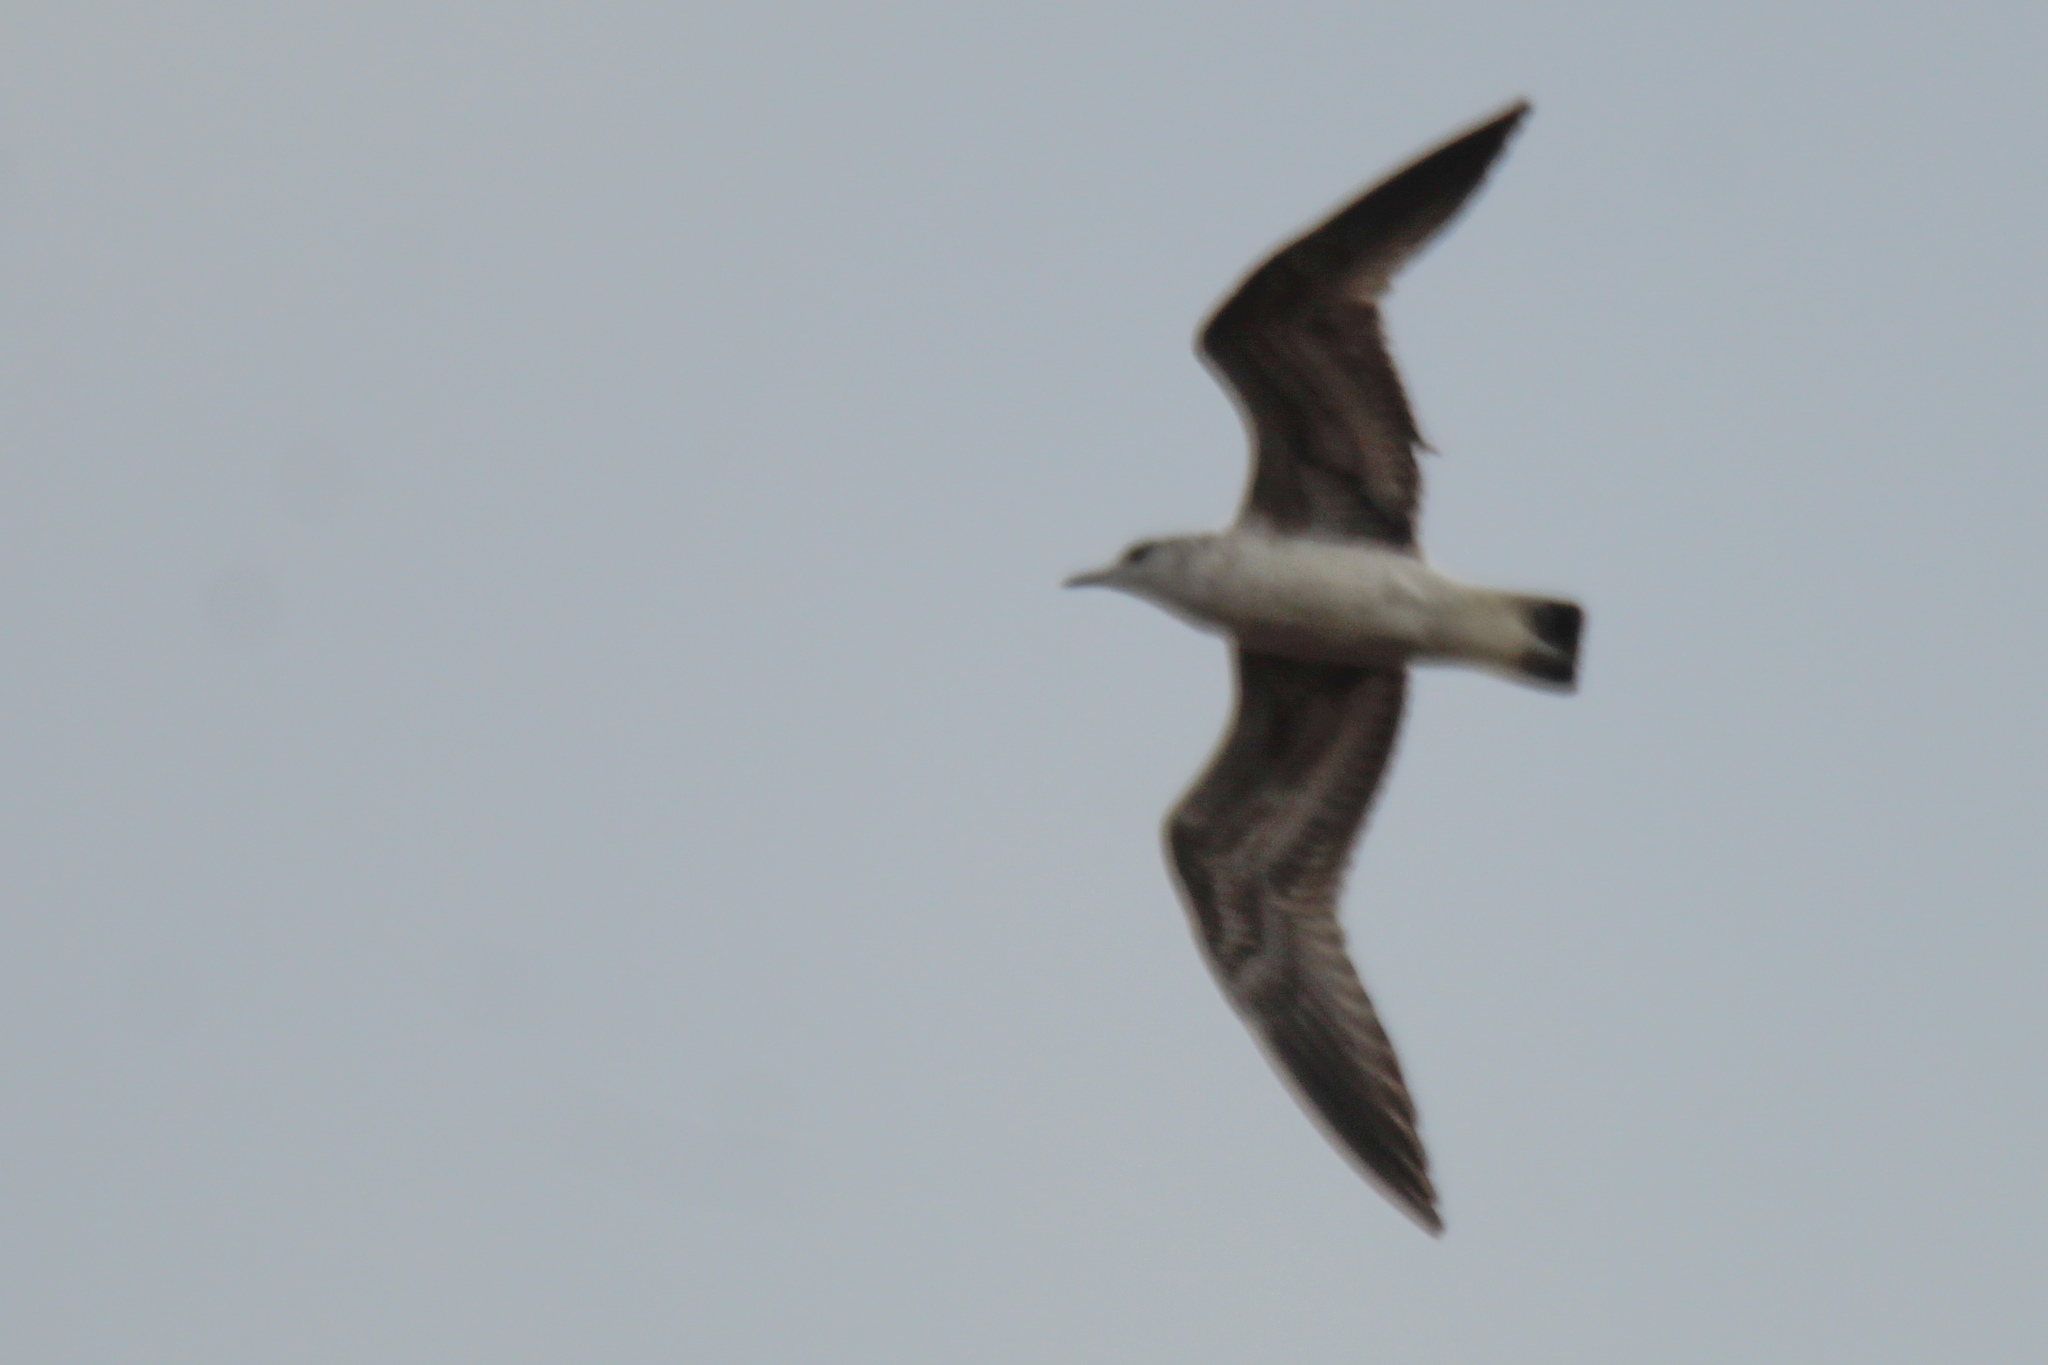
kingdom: Animalia
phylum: Chordata
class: Aves
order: Charadriiformes
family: Laridae
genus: Larus
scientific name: Larus canus
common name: Mew gull
